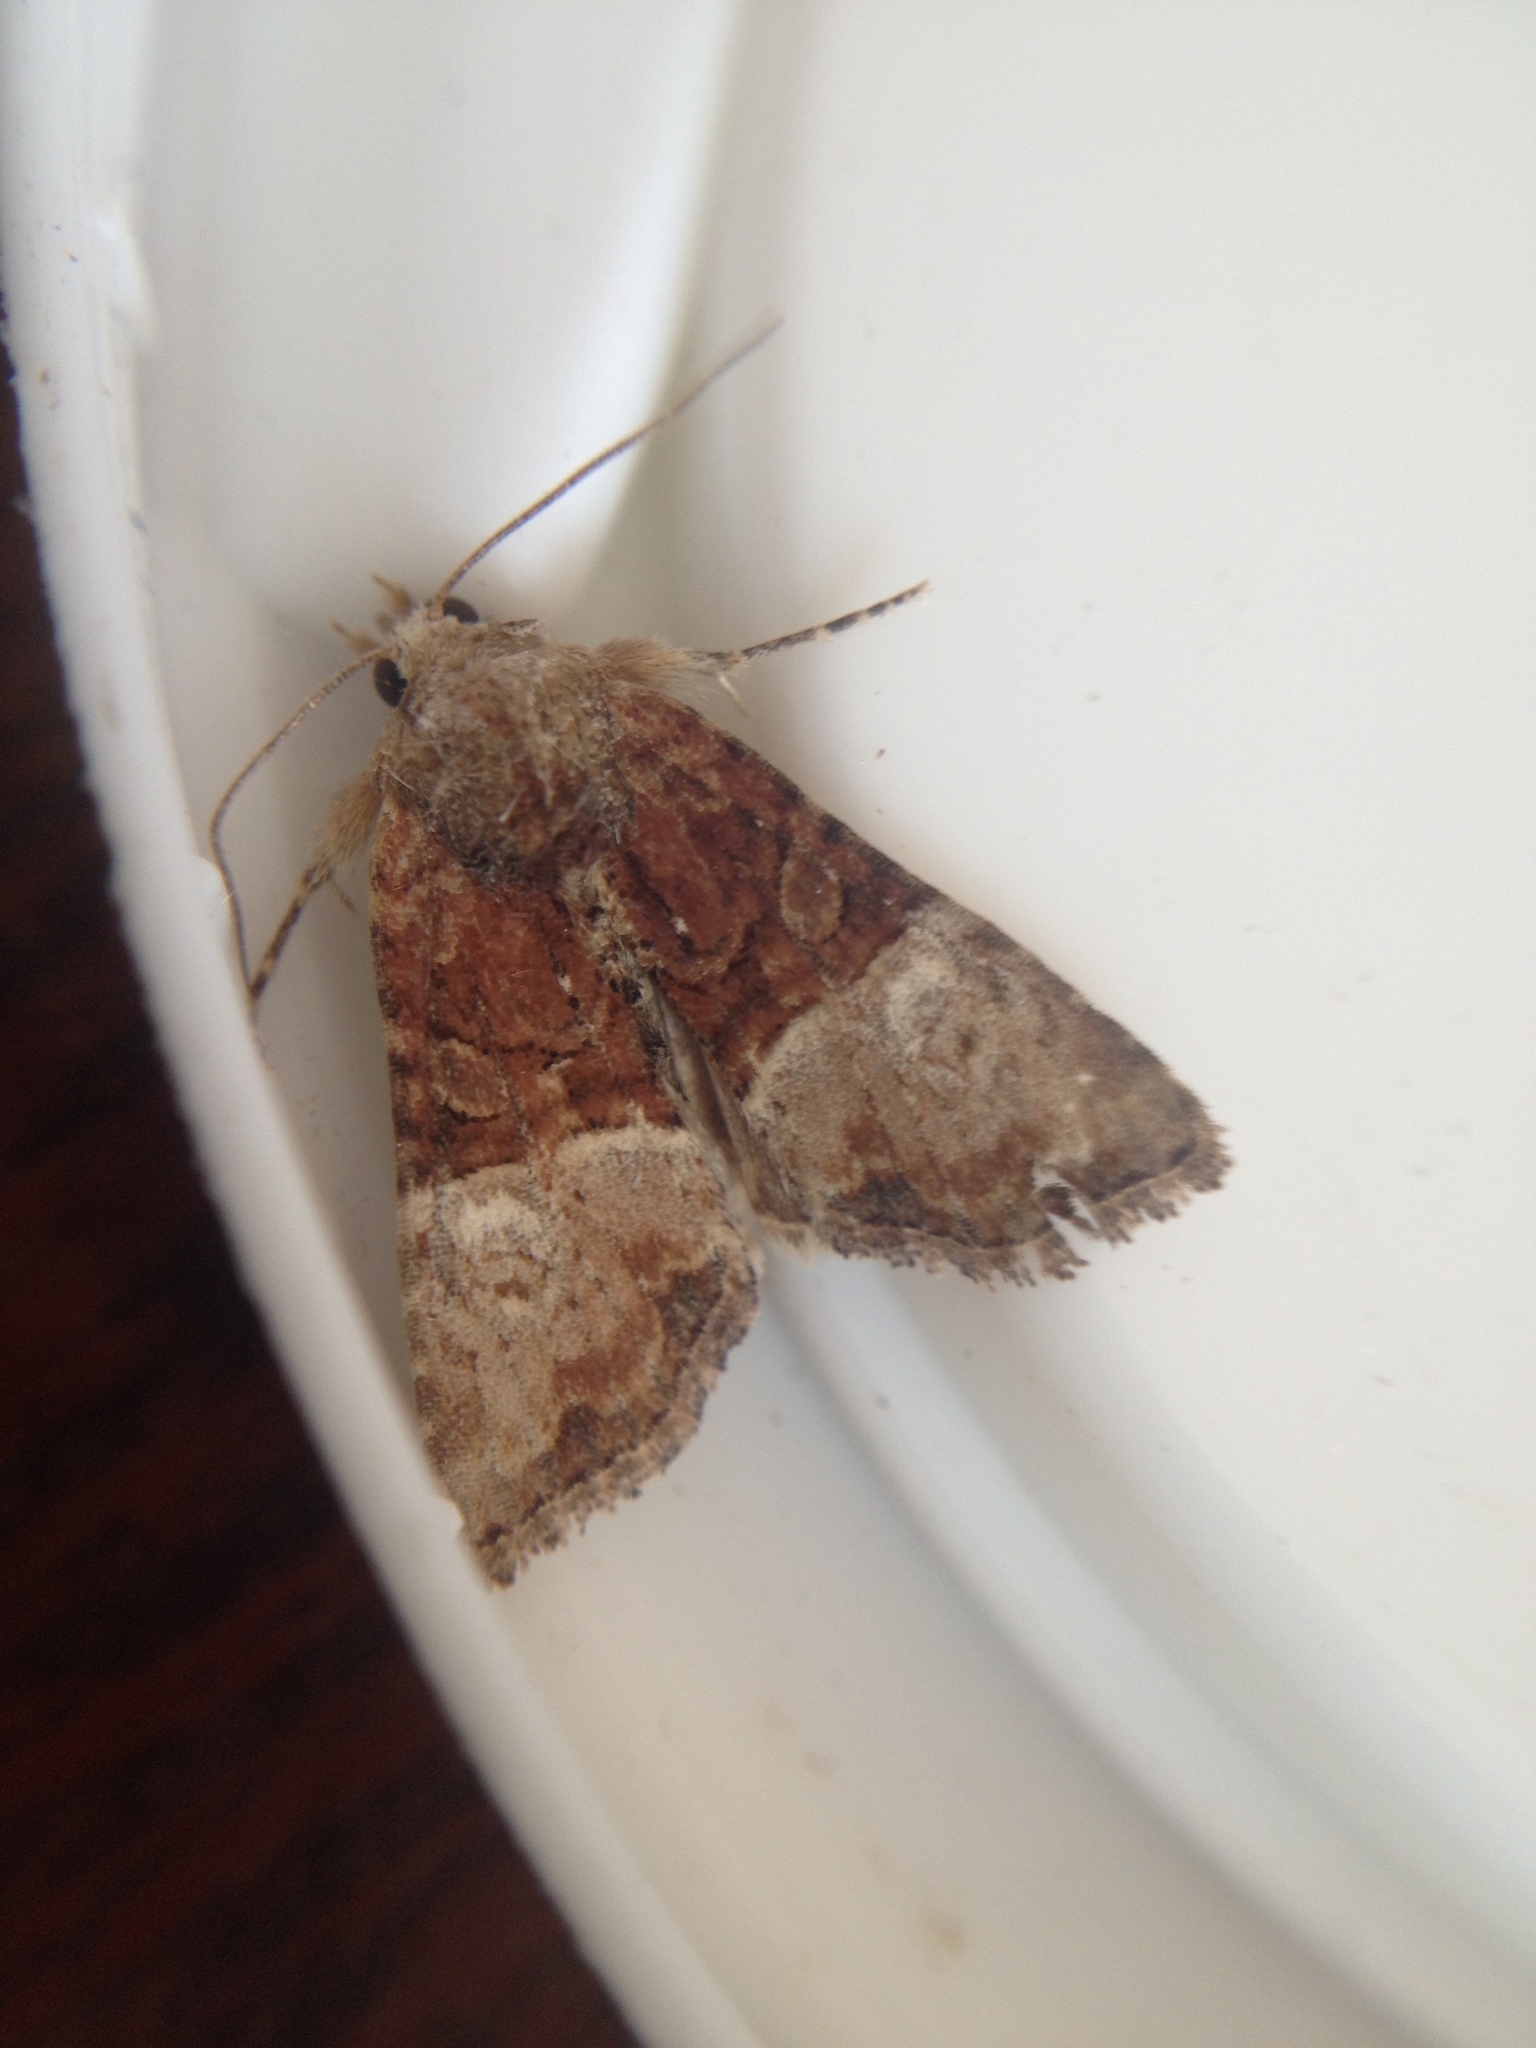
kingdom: Animalia
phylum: Arthropoda
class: Insecta
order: Lepidoptera
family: Noctuidae
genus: Mesoligia
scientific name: Mesoligia furuncula
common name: Cloaked minor
